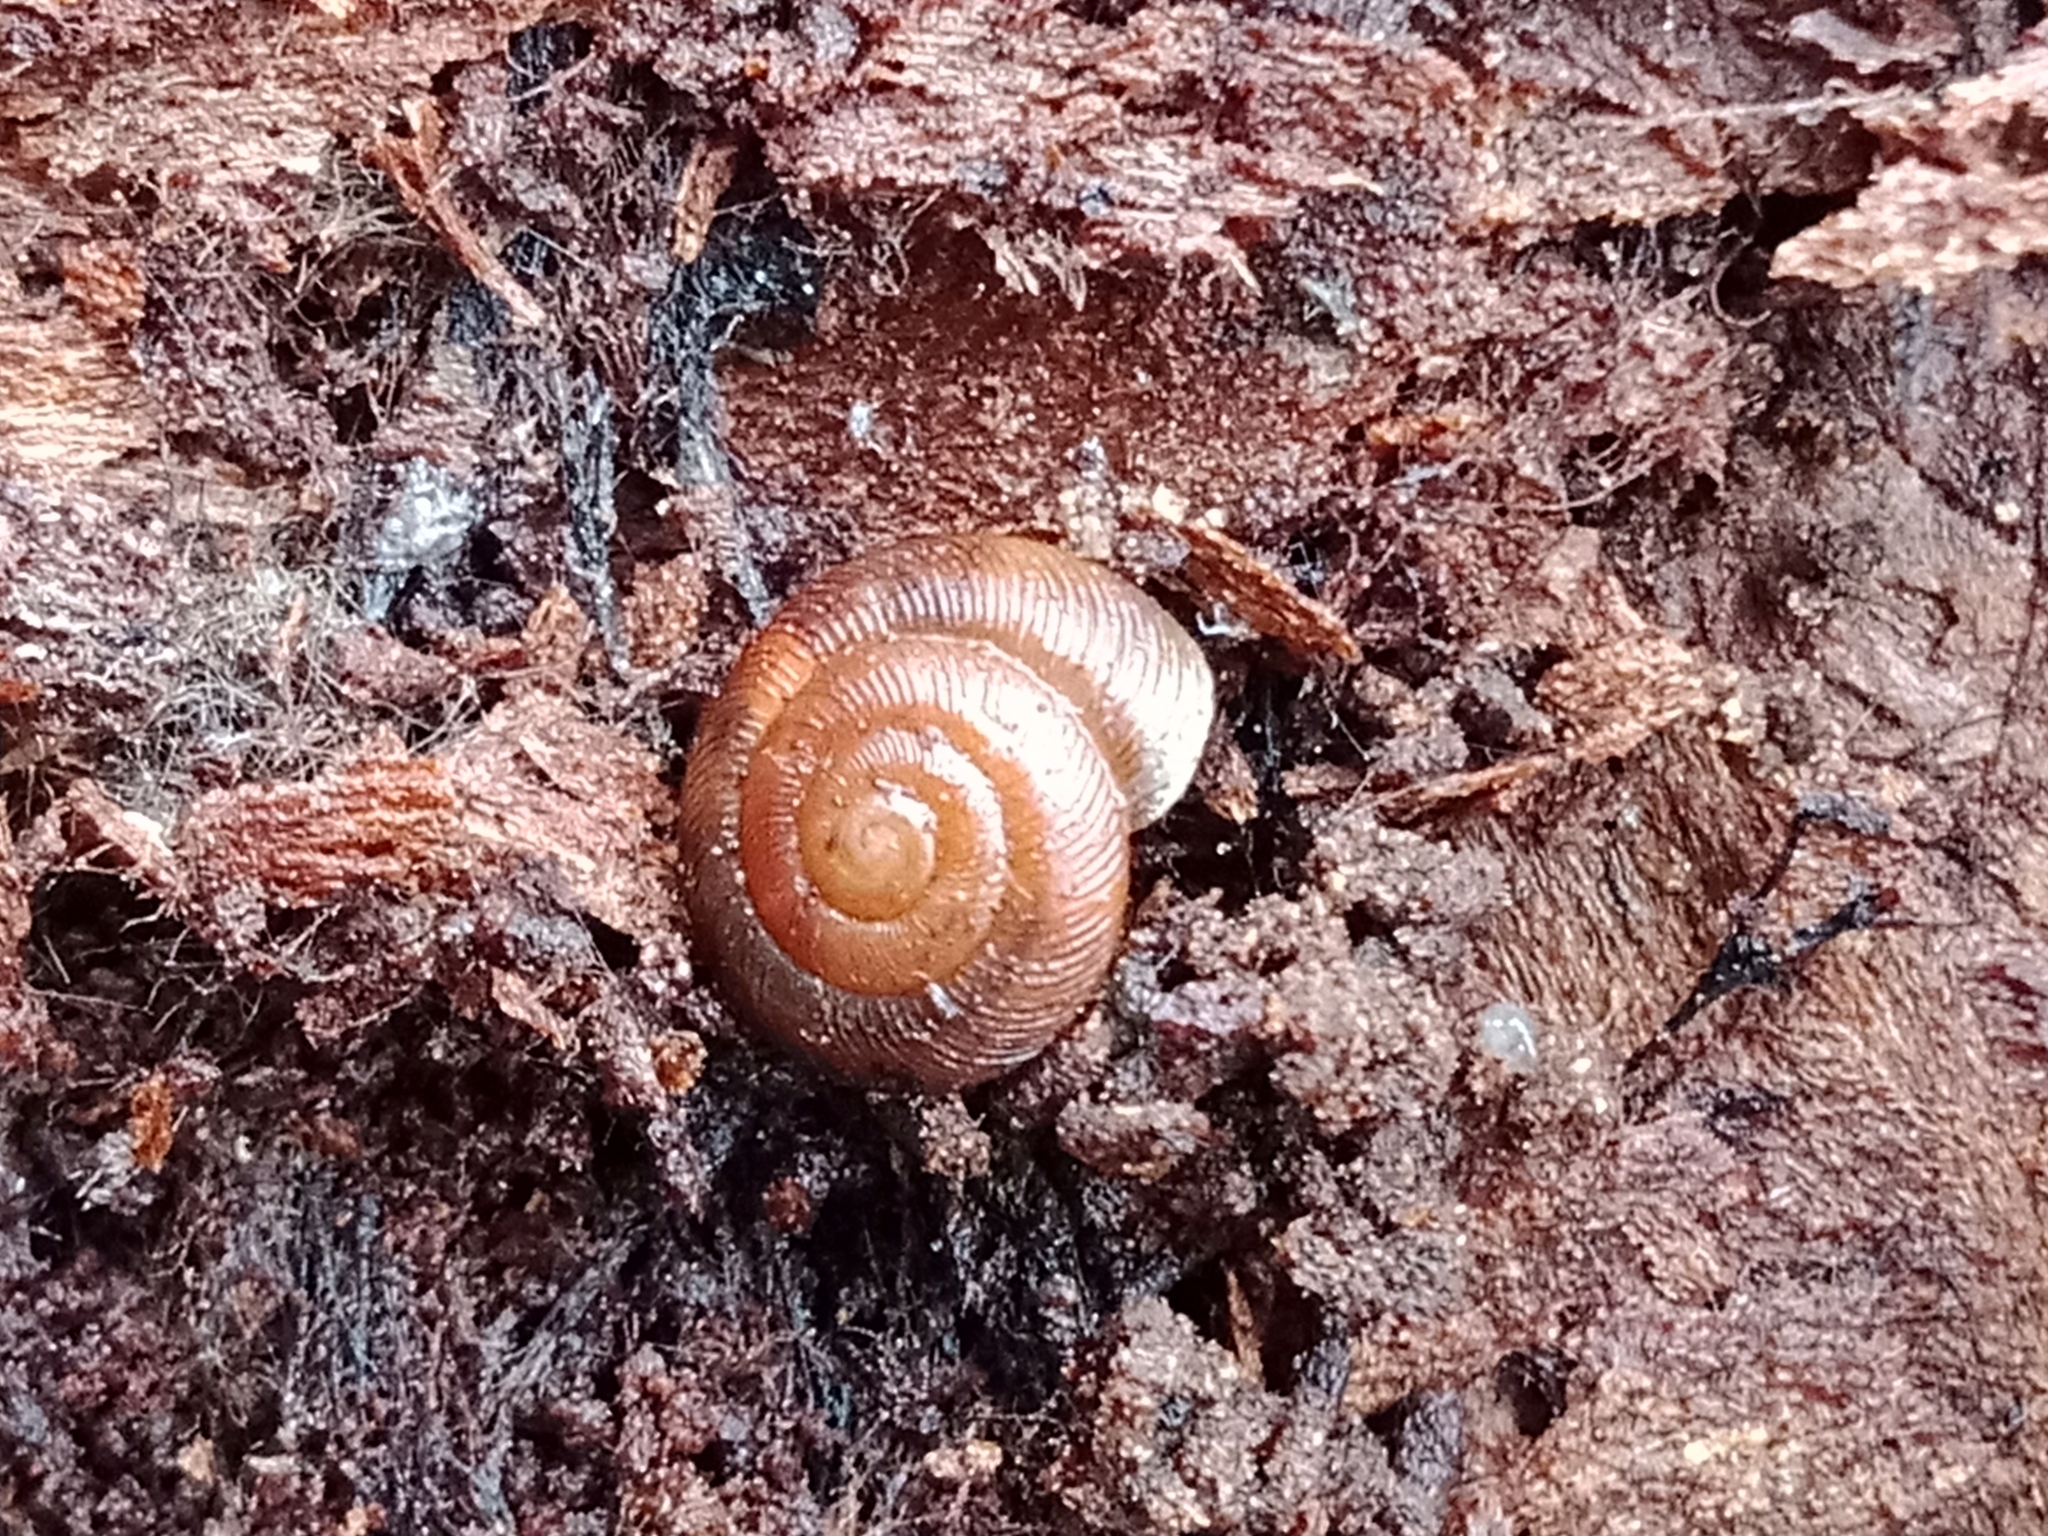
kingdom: Animalia
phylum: Mollusca
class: Gastropoda
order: Stylommatophora
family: Discidae
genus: Discus
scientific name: Discus ruderatus
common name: Brown disc snail
